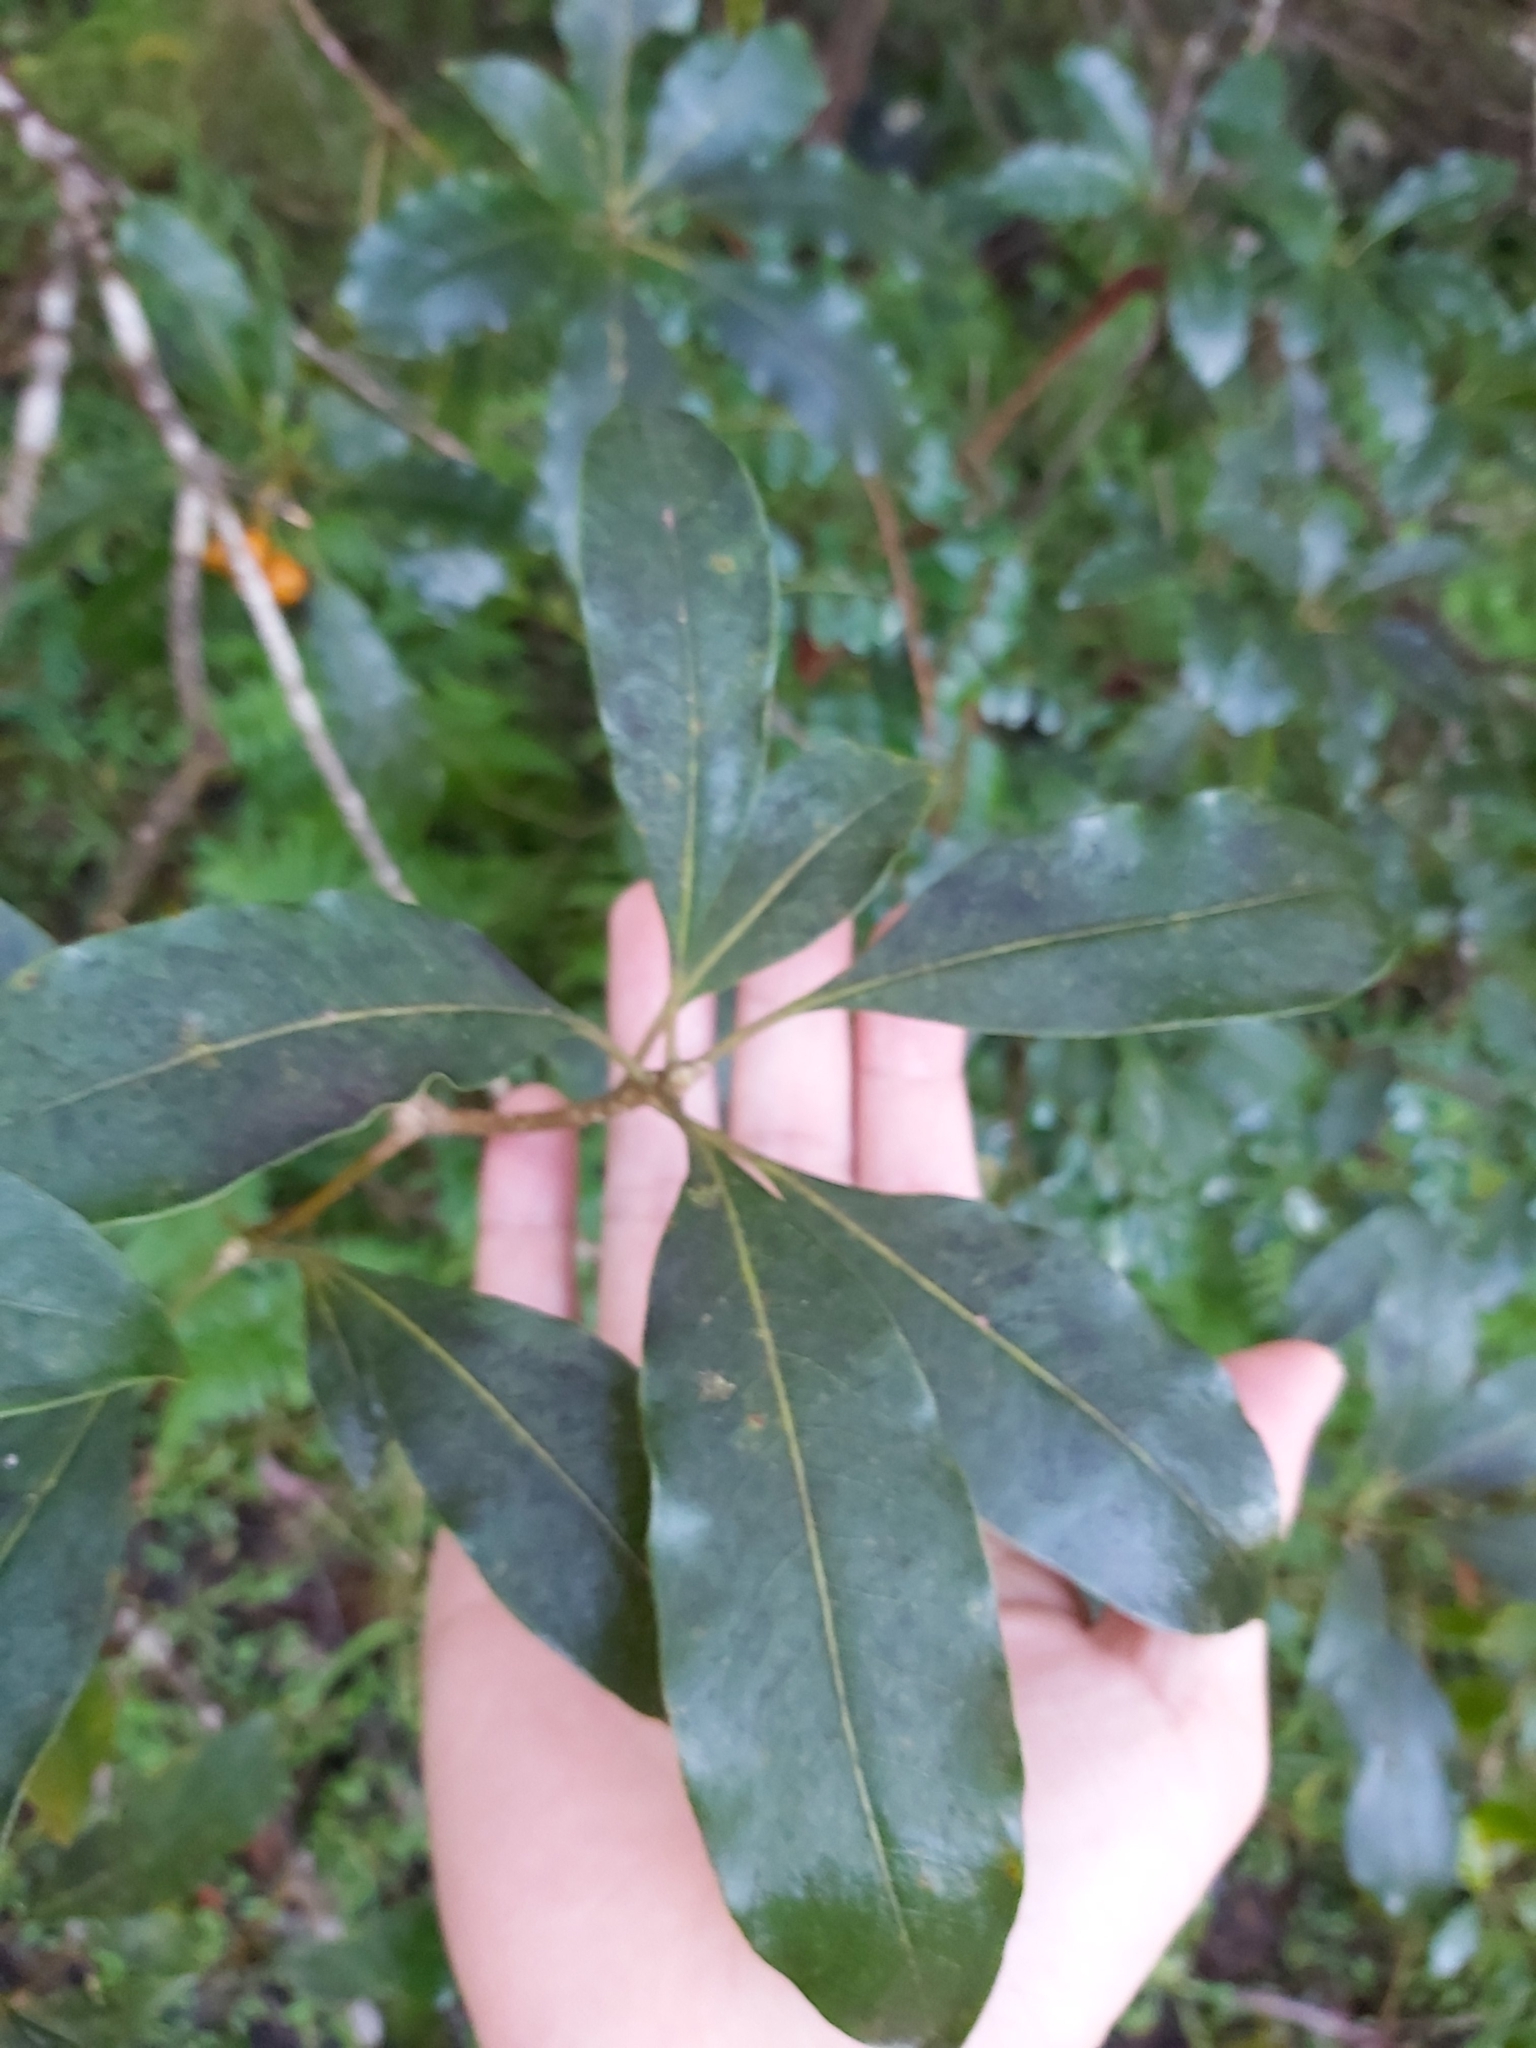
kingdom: Plantae
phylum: Tracheophyta
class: Magnoliopsida
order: Apiales
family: Pittosporaceae
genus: Pittosporum
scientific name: Pittosporum undulatum
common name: Australian cheesewood
